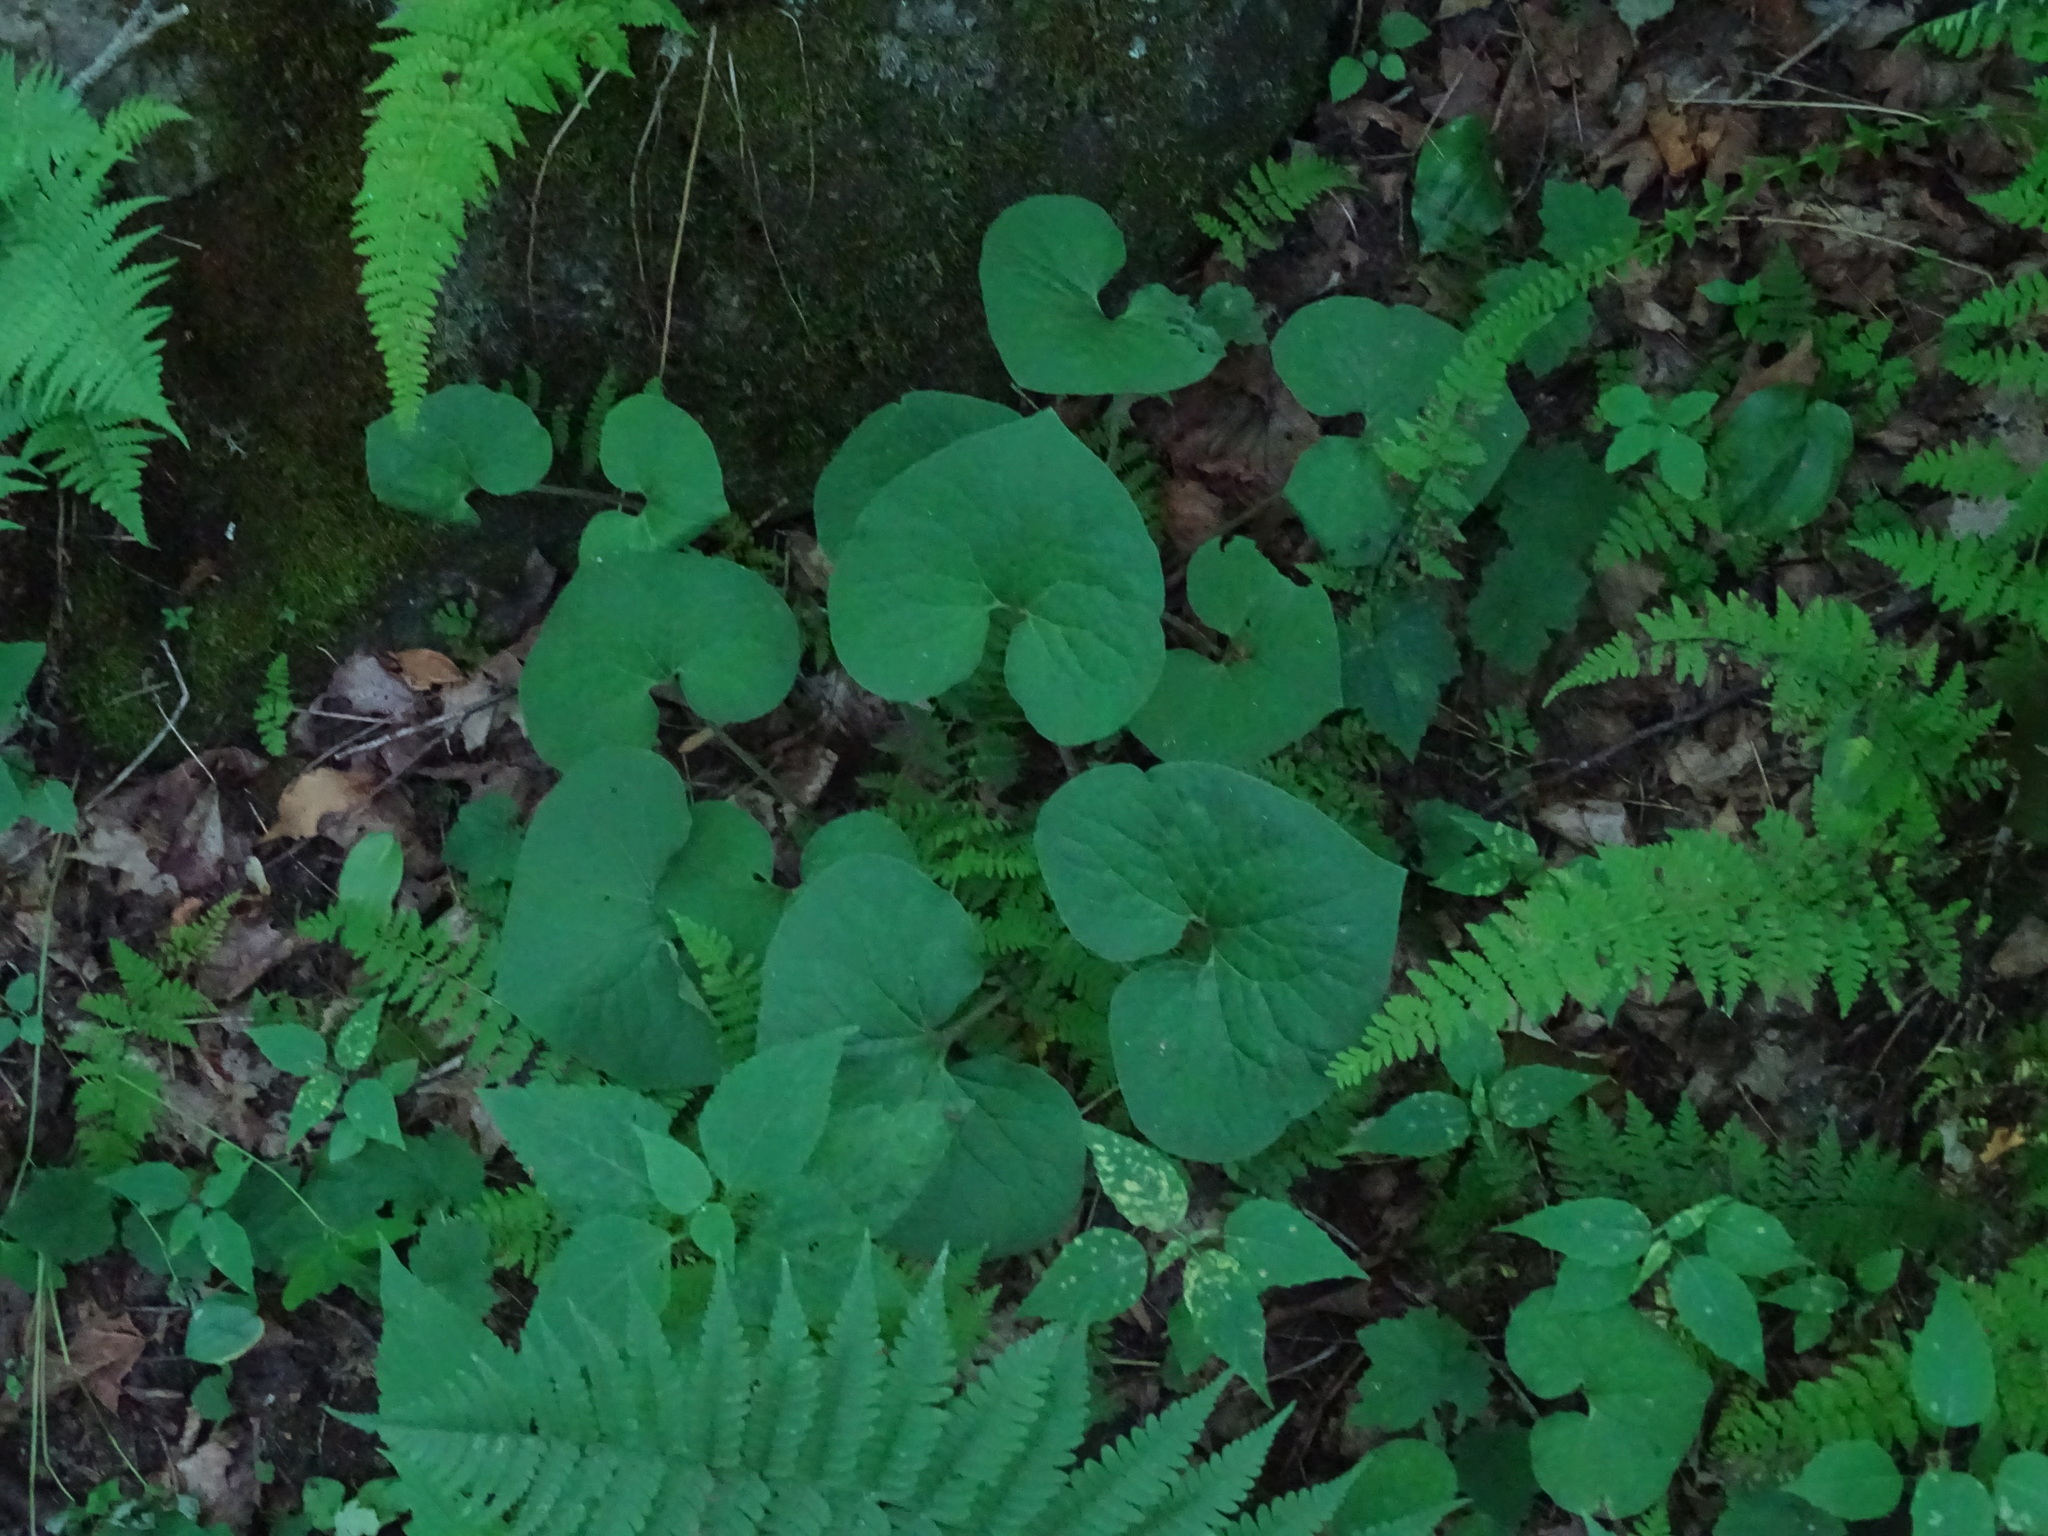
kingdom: Plantae
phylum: Tracheophyta
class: Magnoliopsida
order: Piperales
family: Aristolochiaceae
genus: Asarum
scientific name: Asarum canadense
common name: Wild ginger
